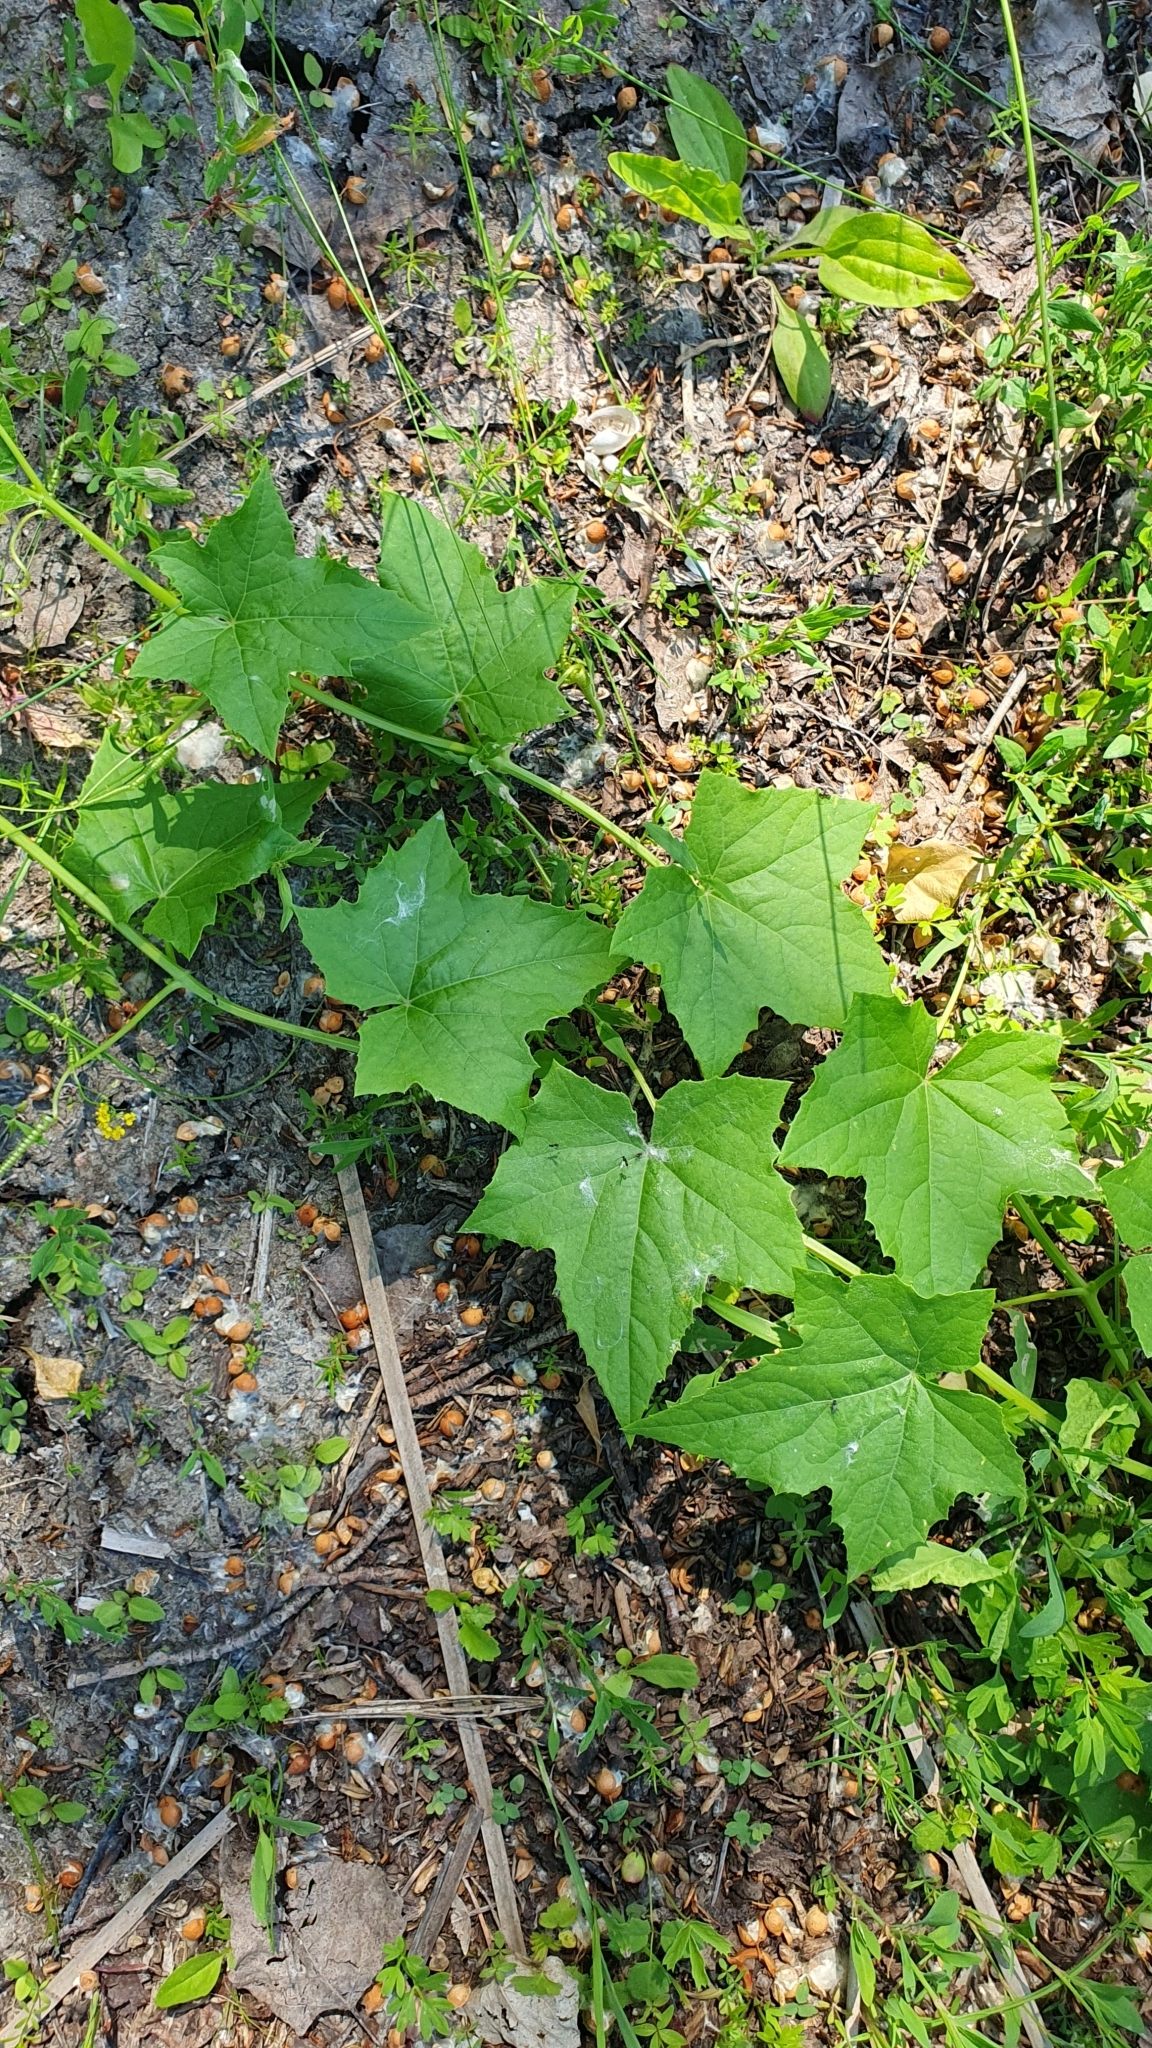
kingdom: Plantae
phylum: Tracheophyta
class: Magnoliopsida
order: Cucurbitales
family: Cucurbitaceae
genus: Echinocystis
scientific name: Echinocystis lobata
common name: Wild cucumber
